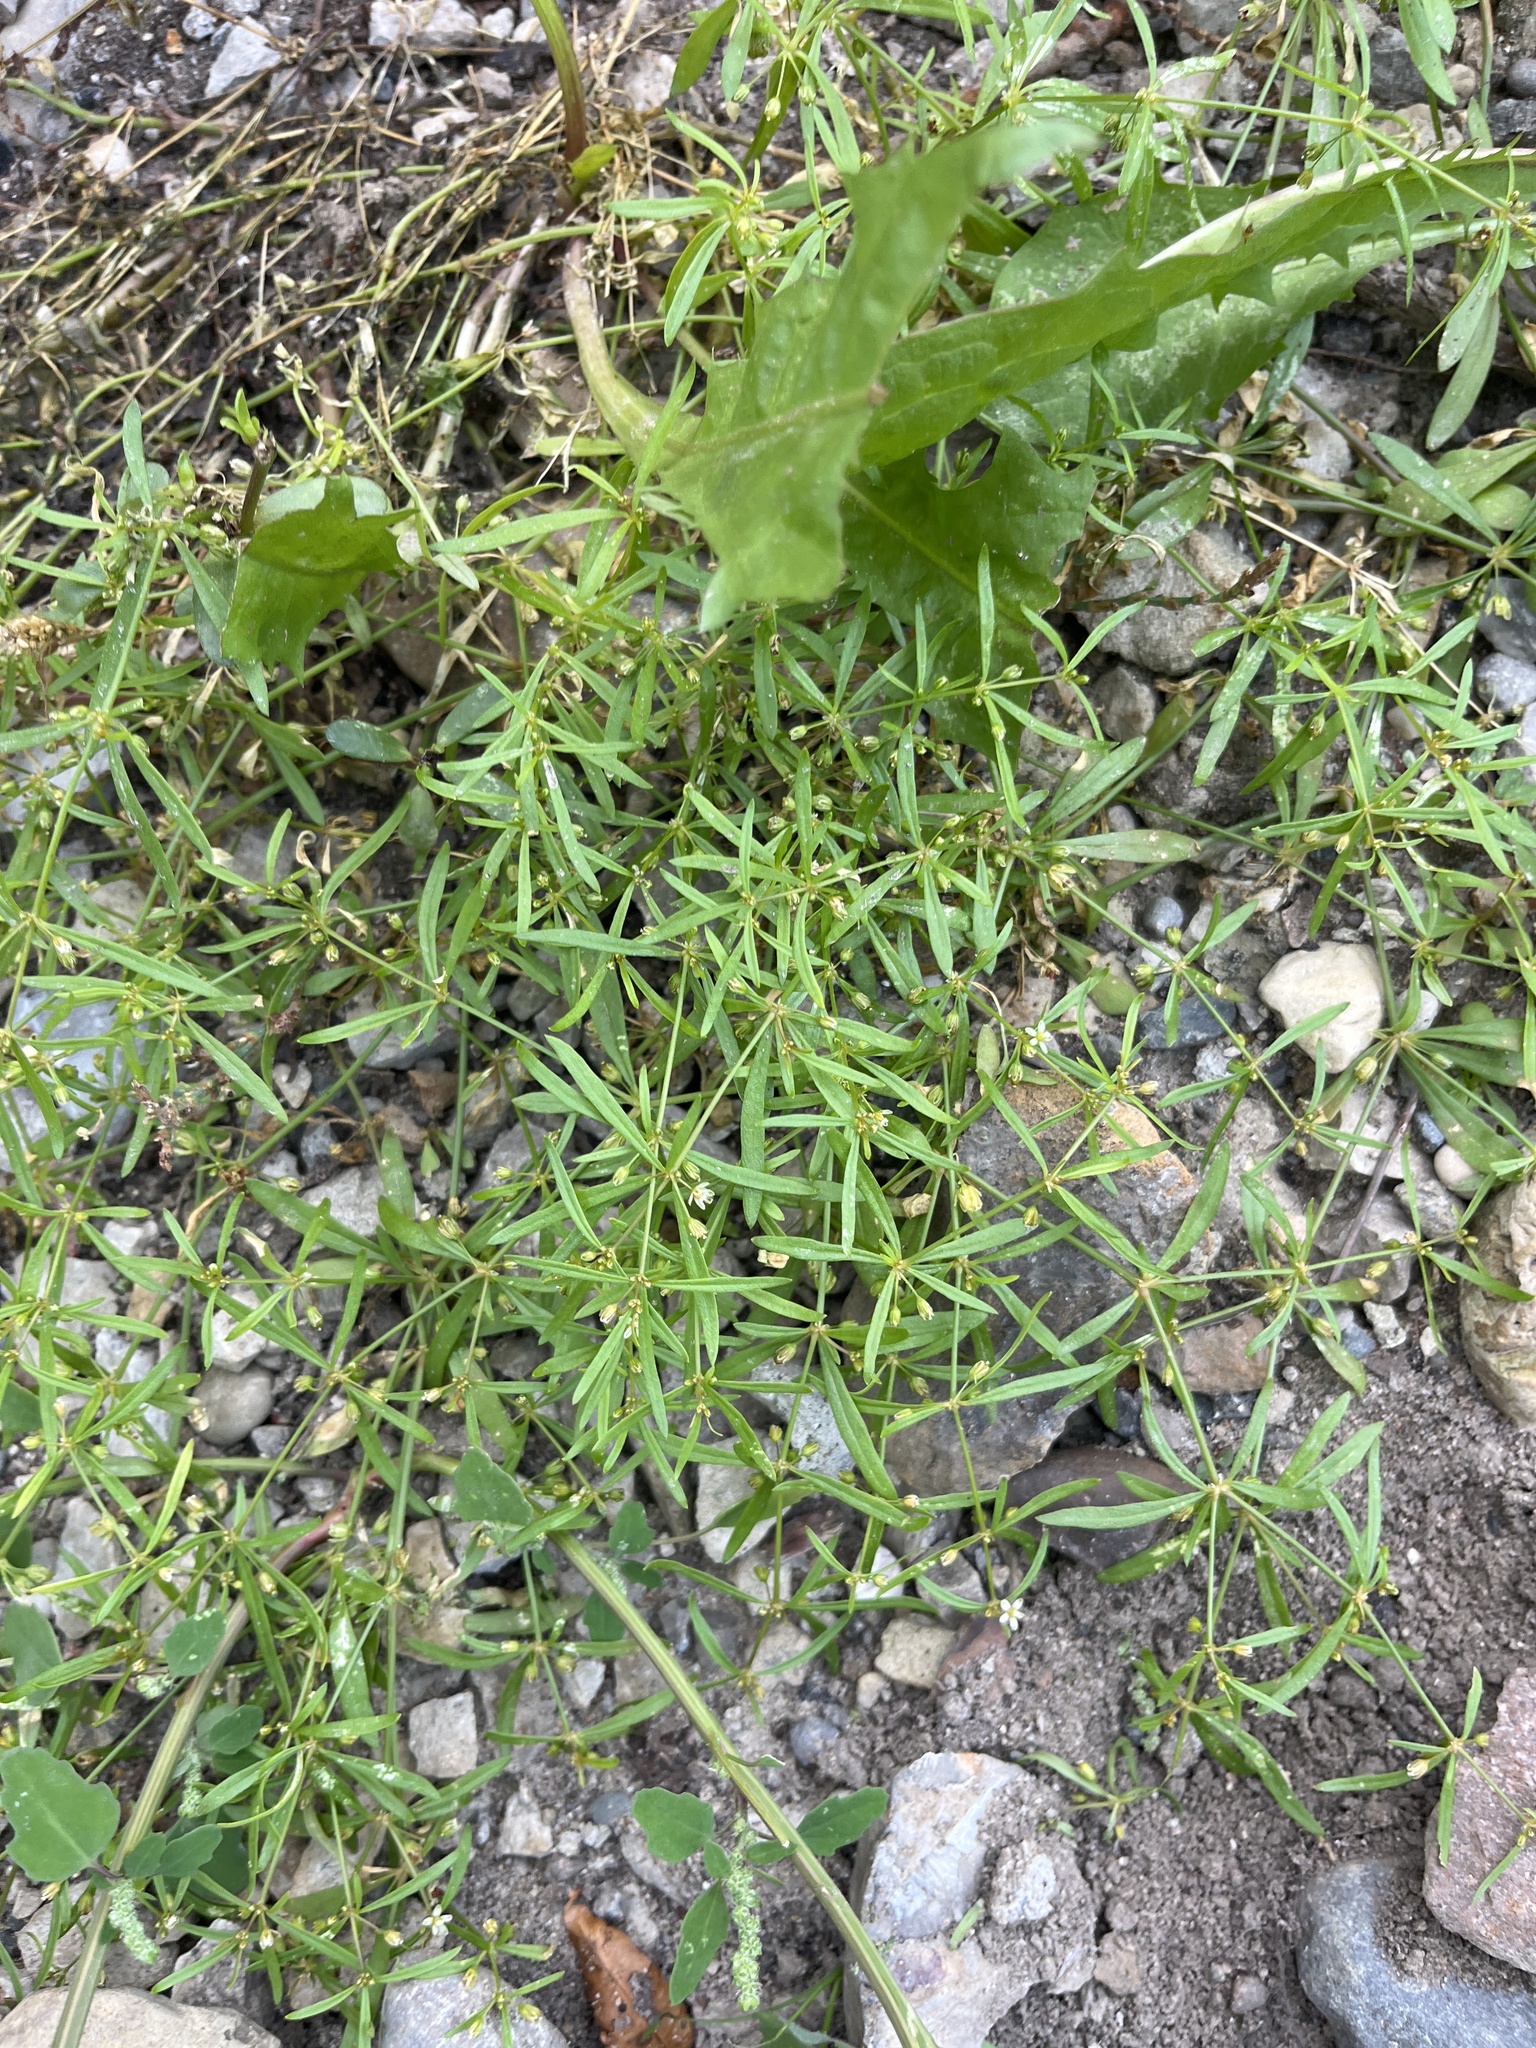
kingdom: Plantae
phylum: Tracheophyta
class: Magnoliopsida
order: Caryophyllales
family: Molluginaceae
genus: Mollugo
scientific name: Mollugo verticillata
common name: Green carpetweed
